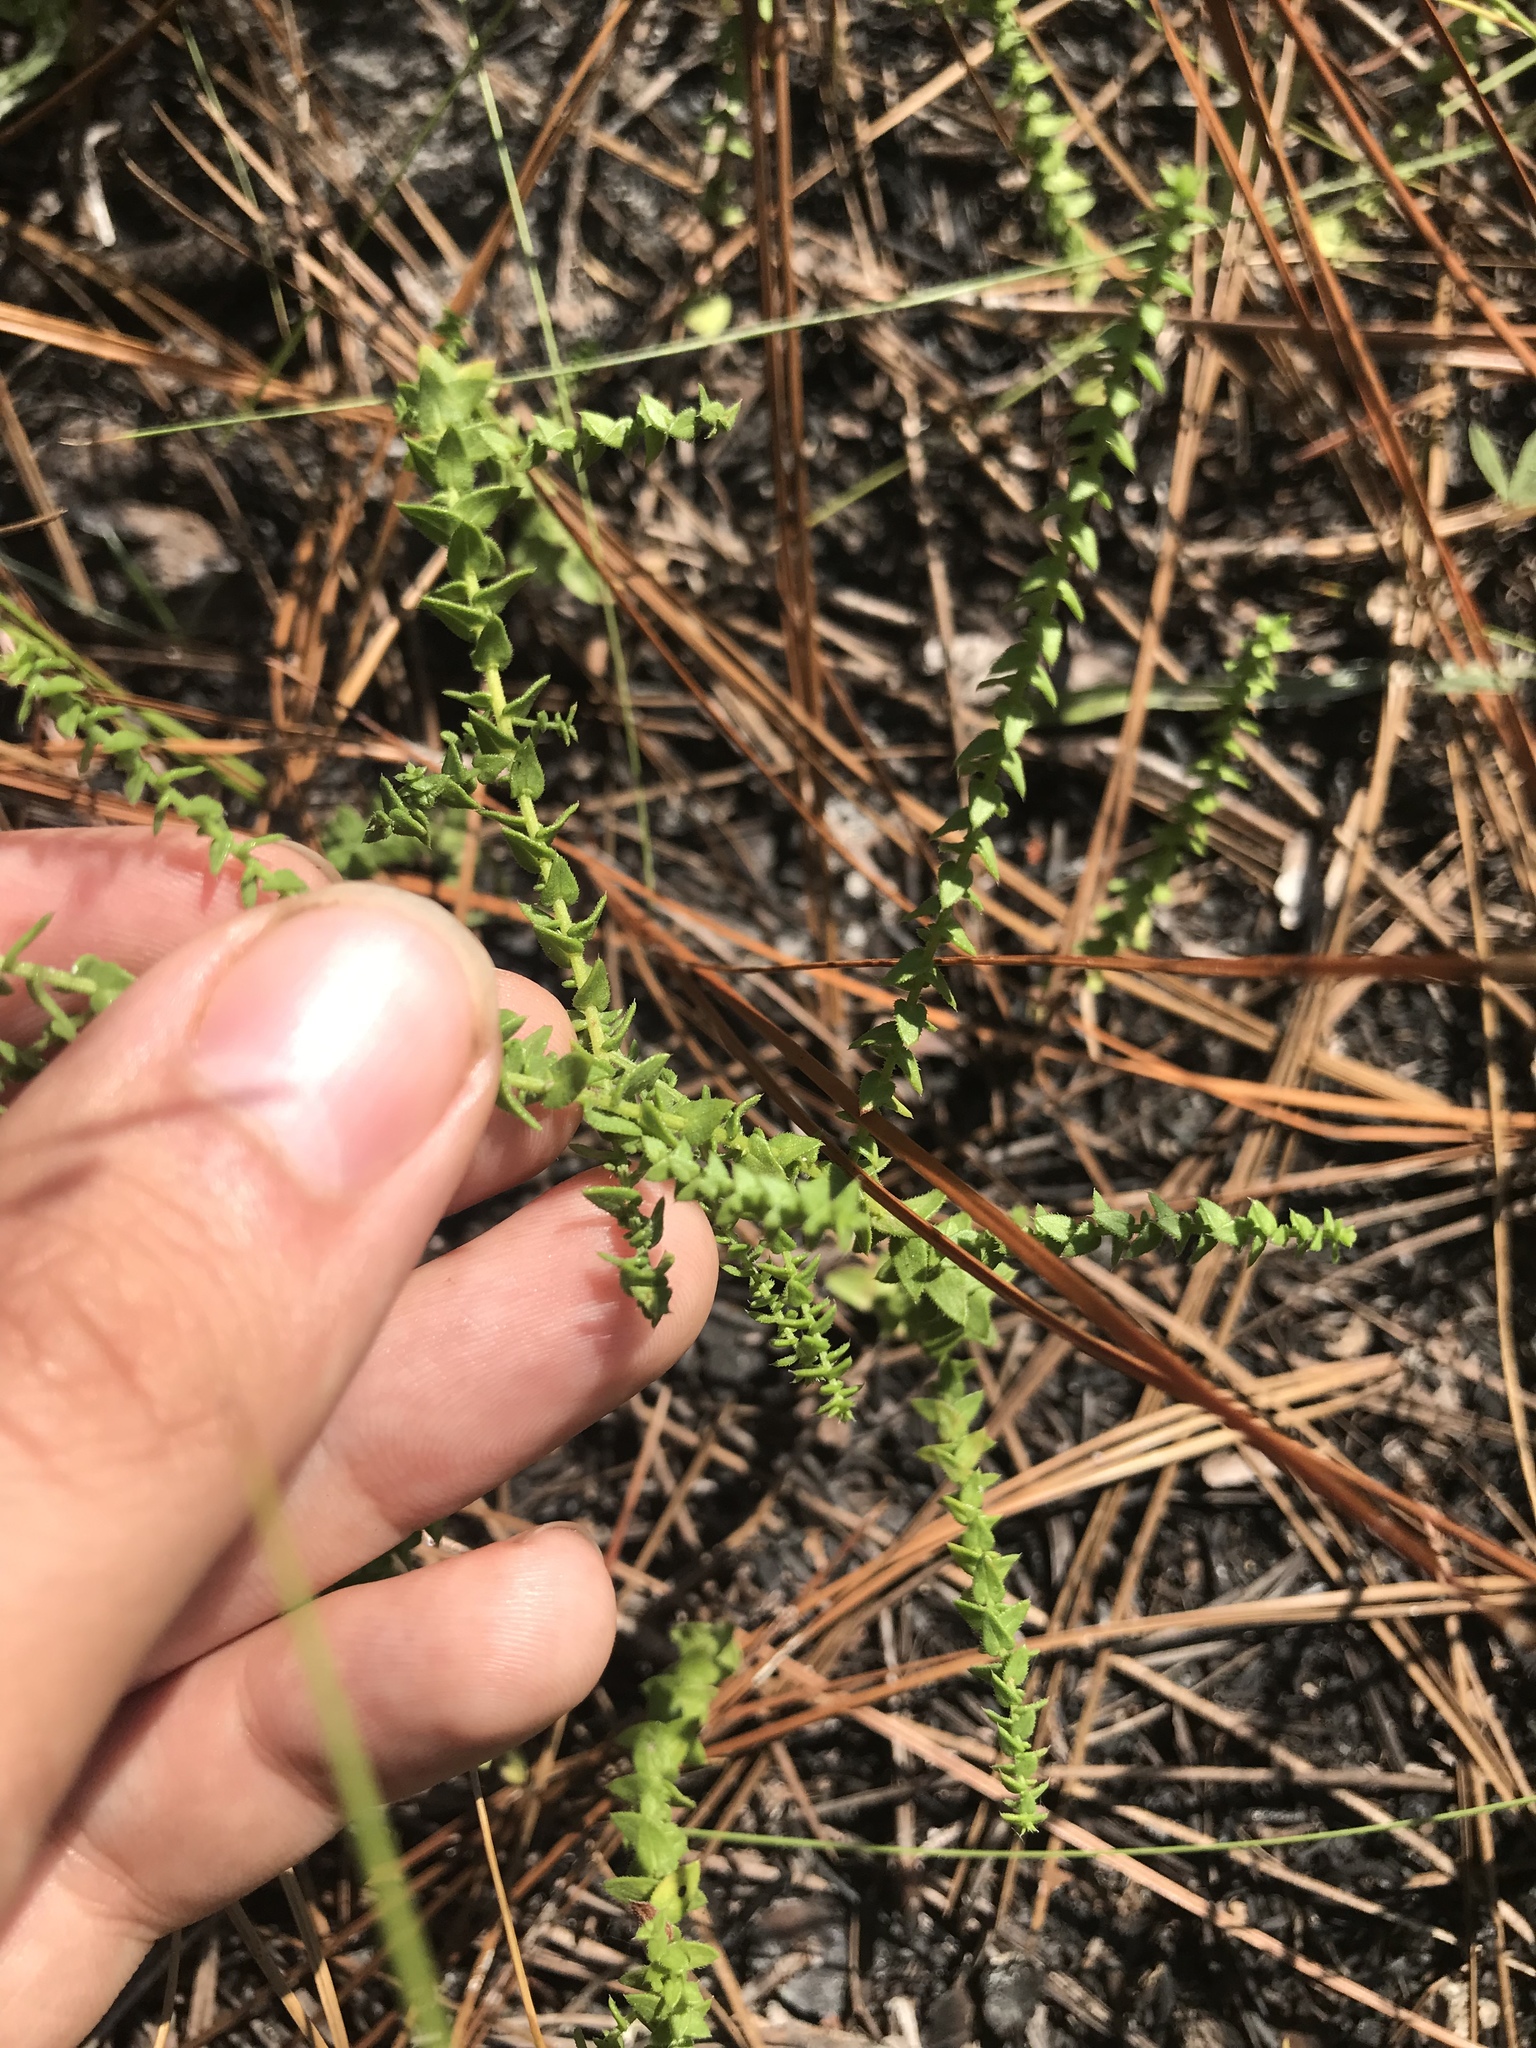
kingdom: Plantae
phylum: Tracheophyta
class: Magnoliopsida
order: Asterales
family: Asteraceae
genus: Symphyotrichum
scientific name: Symphyotrichum walteri
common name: Walter's aster
